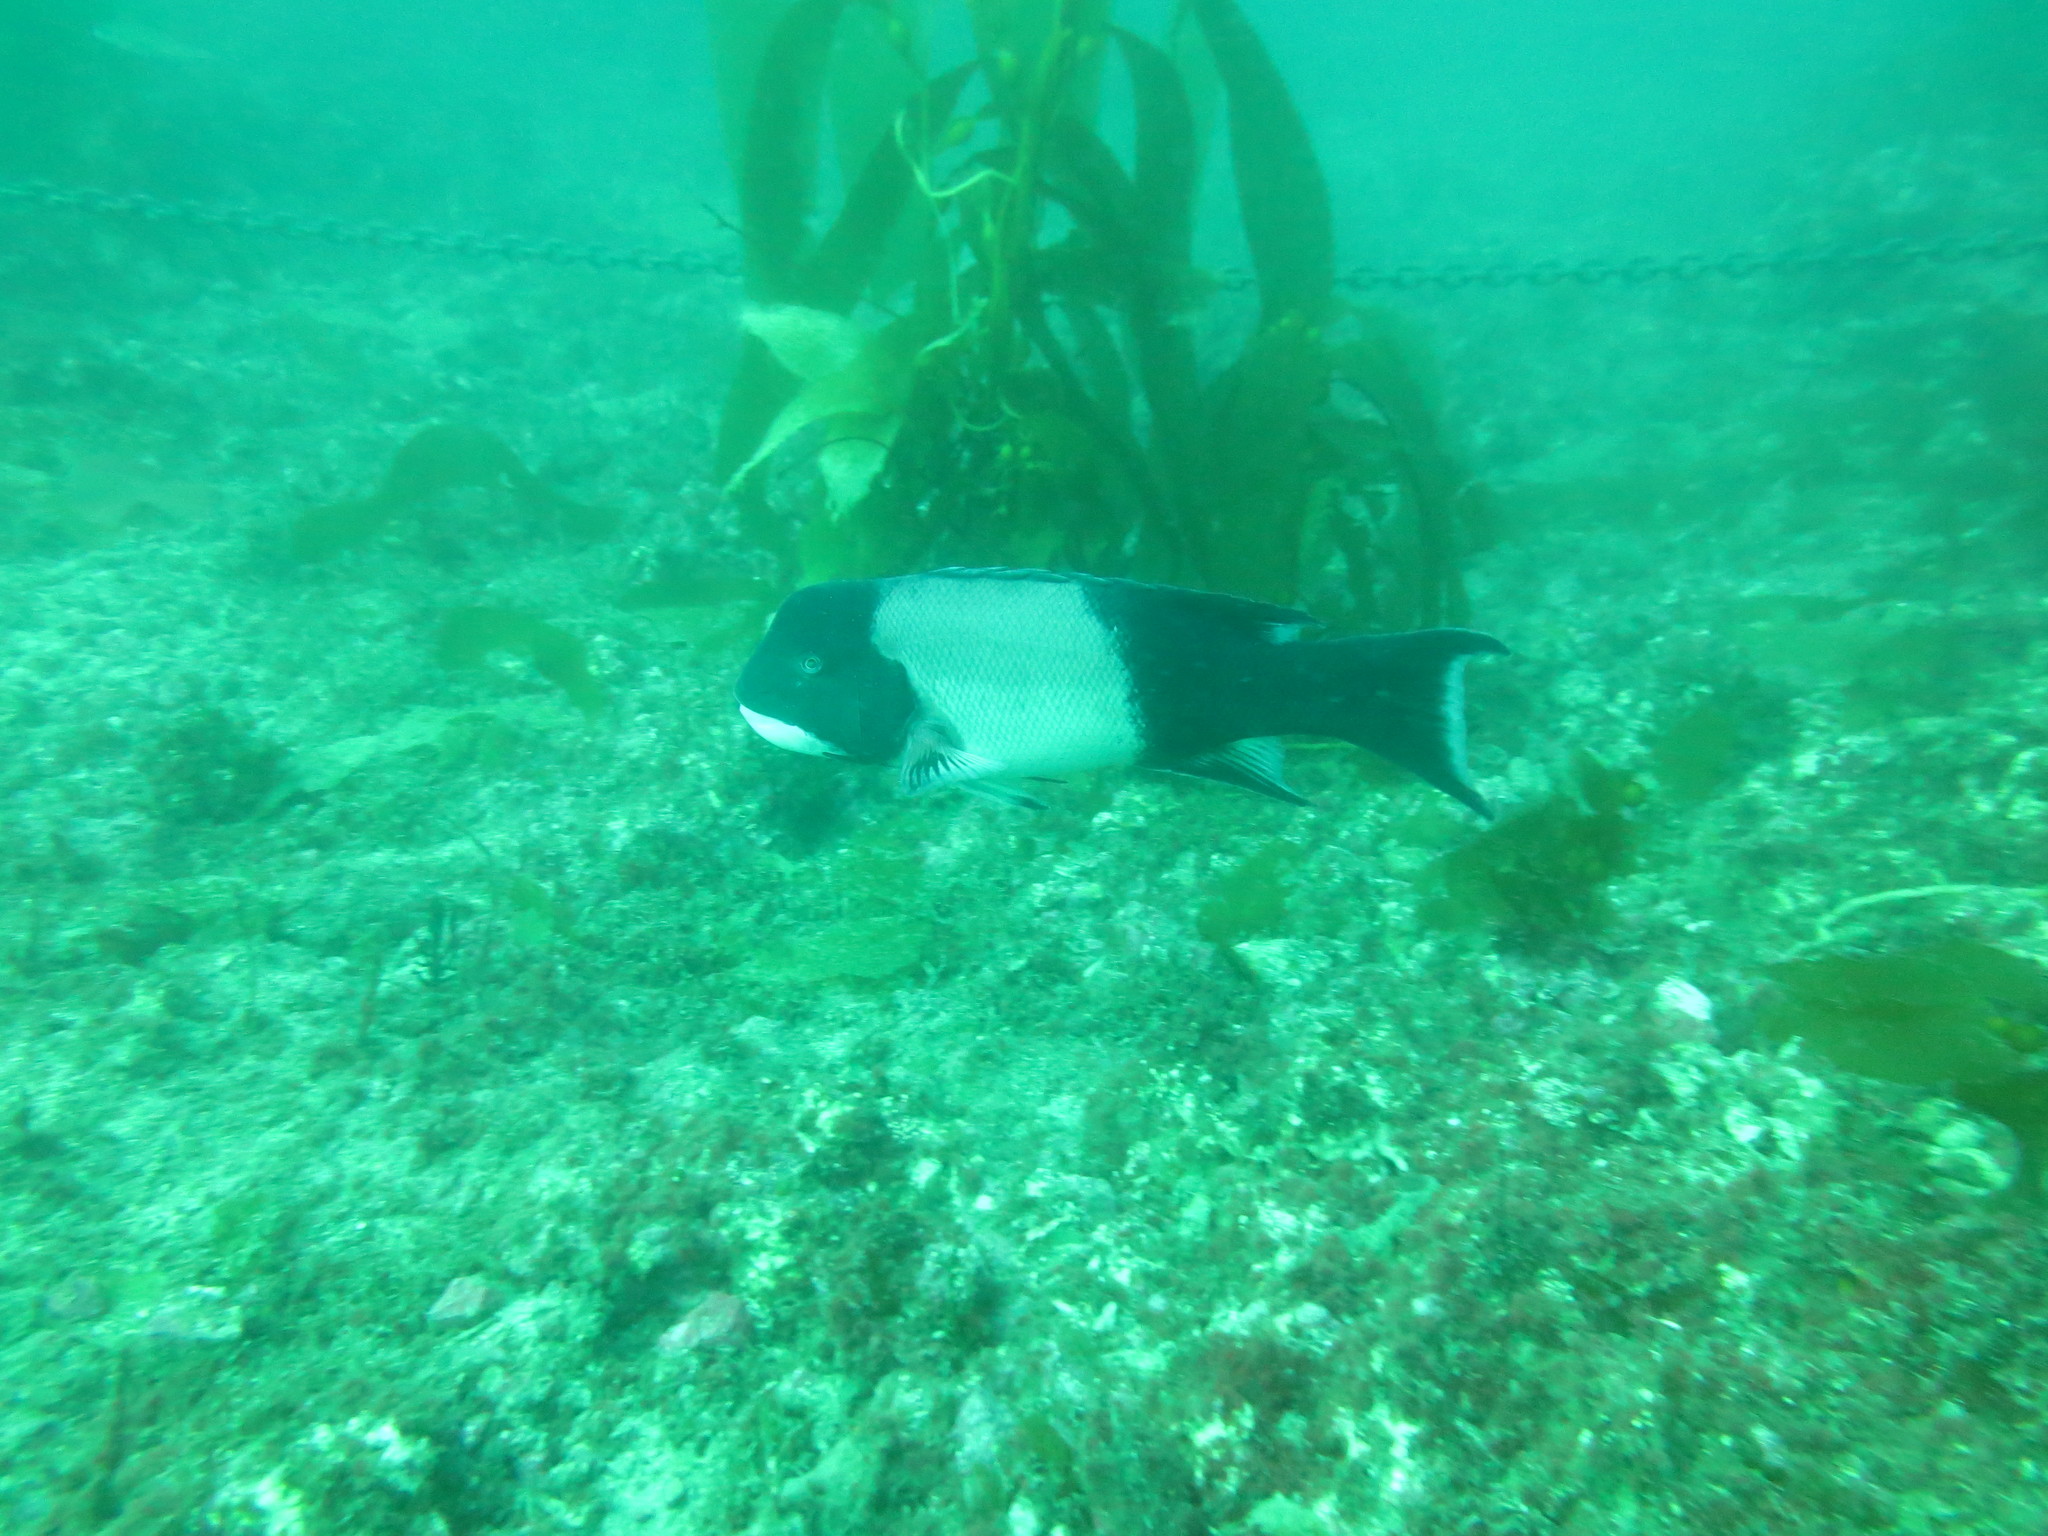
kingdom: Animalia
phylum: Chordata
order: Perciformes
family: Labridae
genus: Semicossyphus
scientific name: Semicossyphus pulcher
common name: California sheephead
